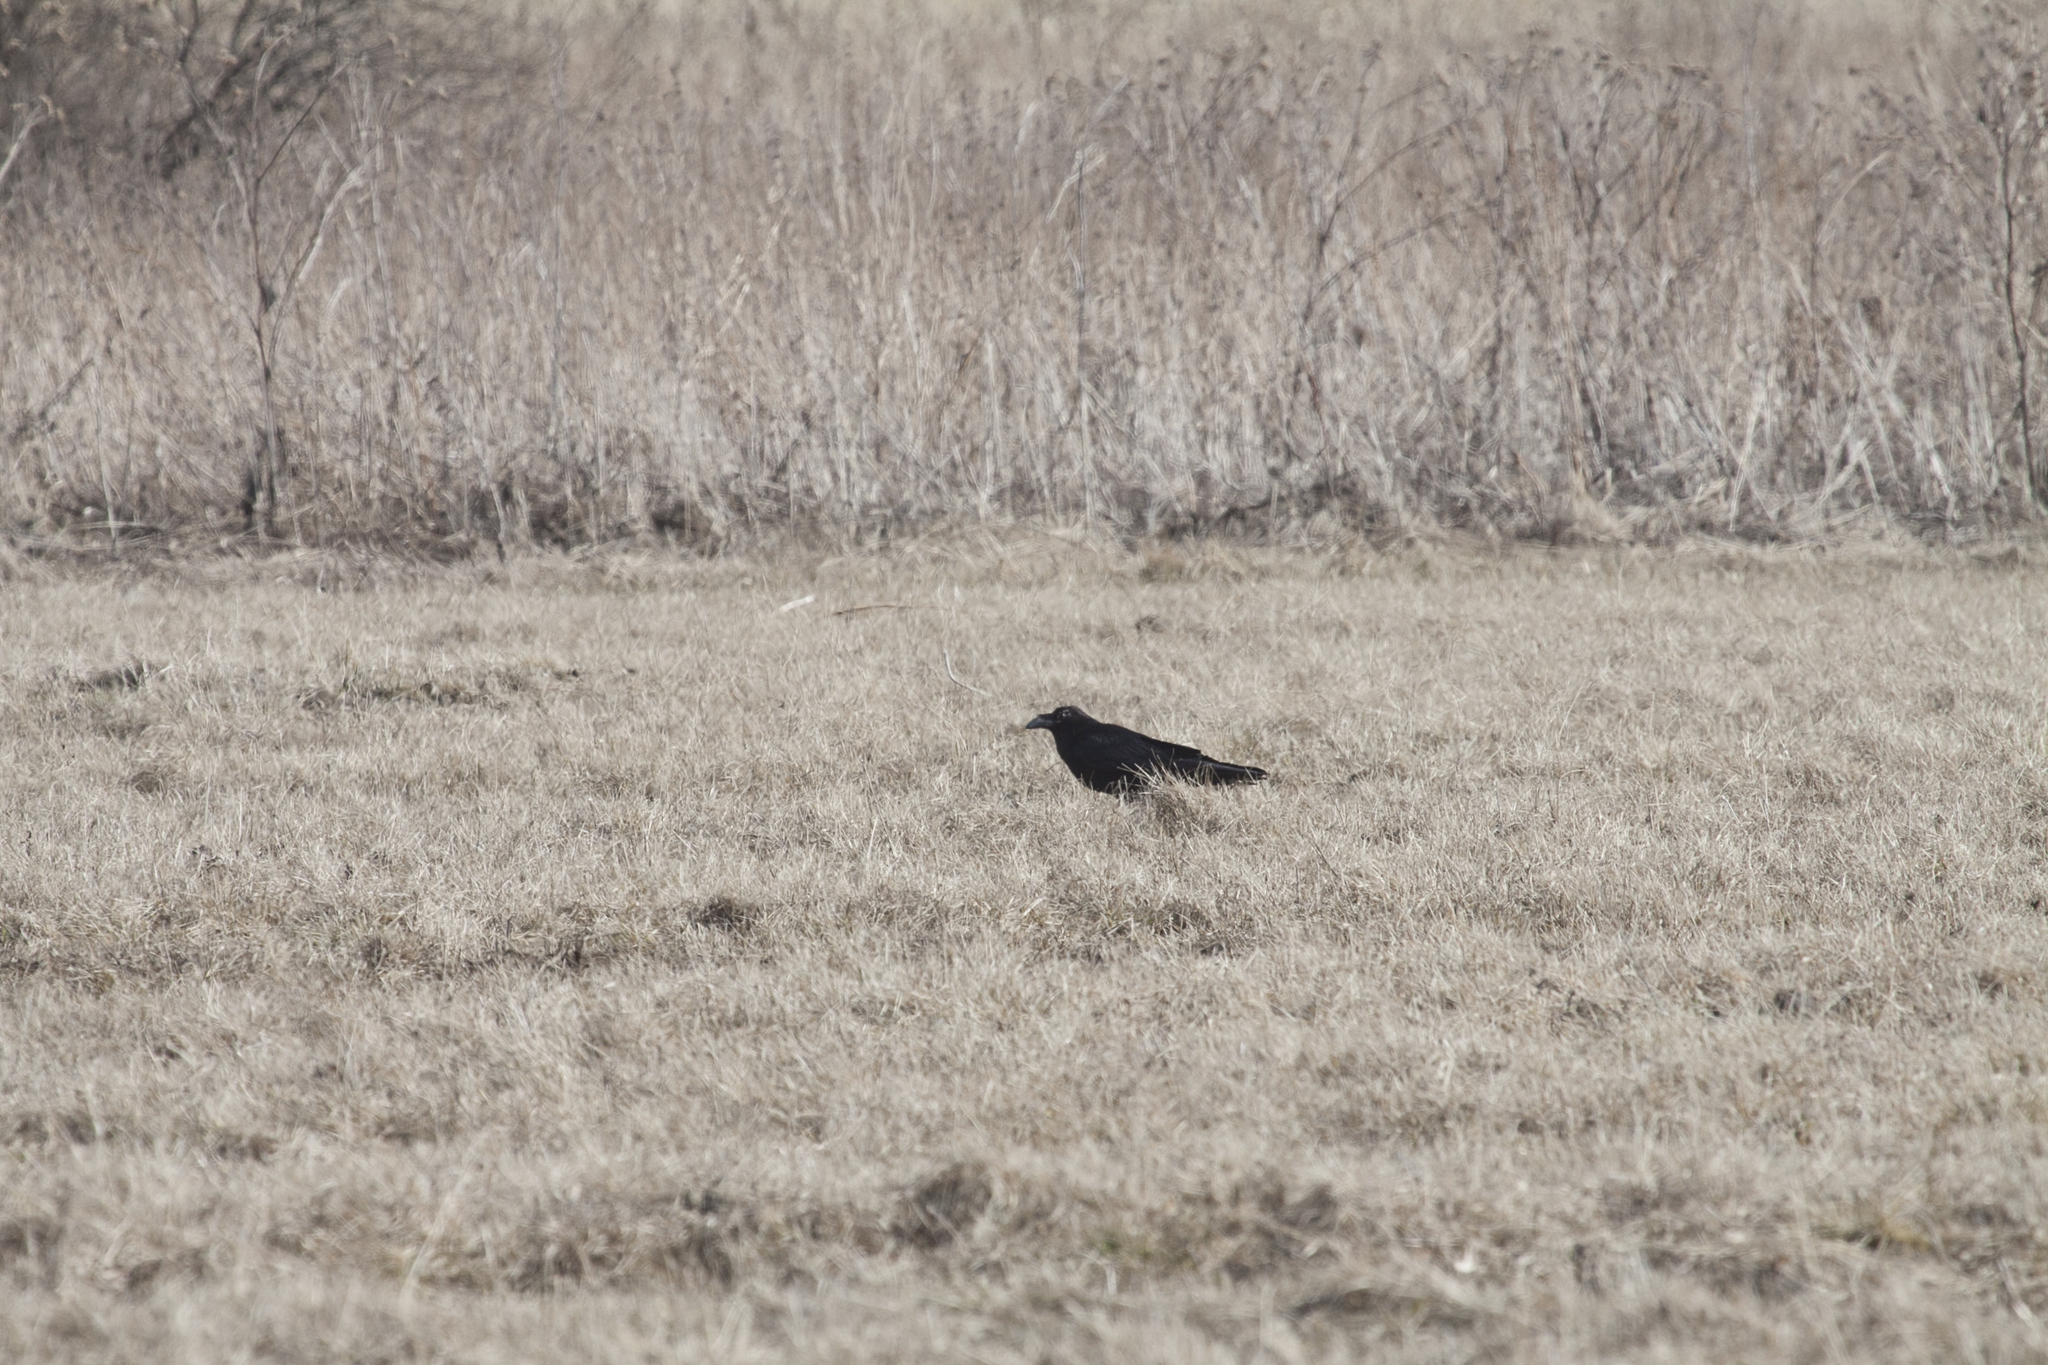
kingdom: Animalia
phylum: Chordata
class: Aves
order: Passeriformes
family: Corvidae
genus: Corvus
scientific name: Corvus corax
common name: Common raven
